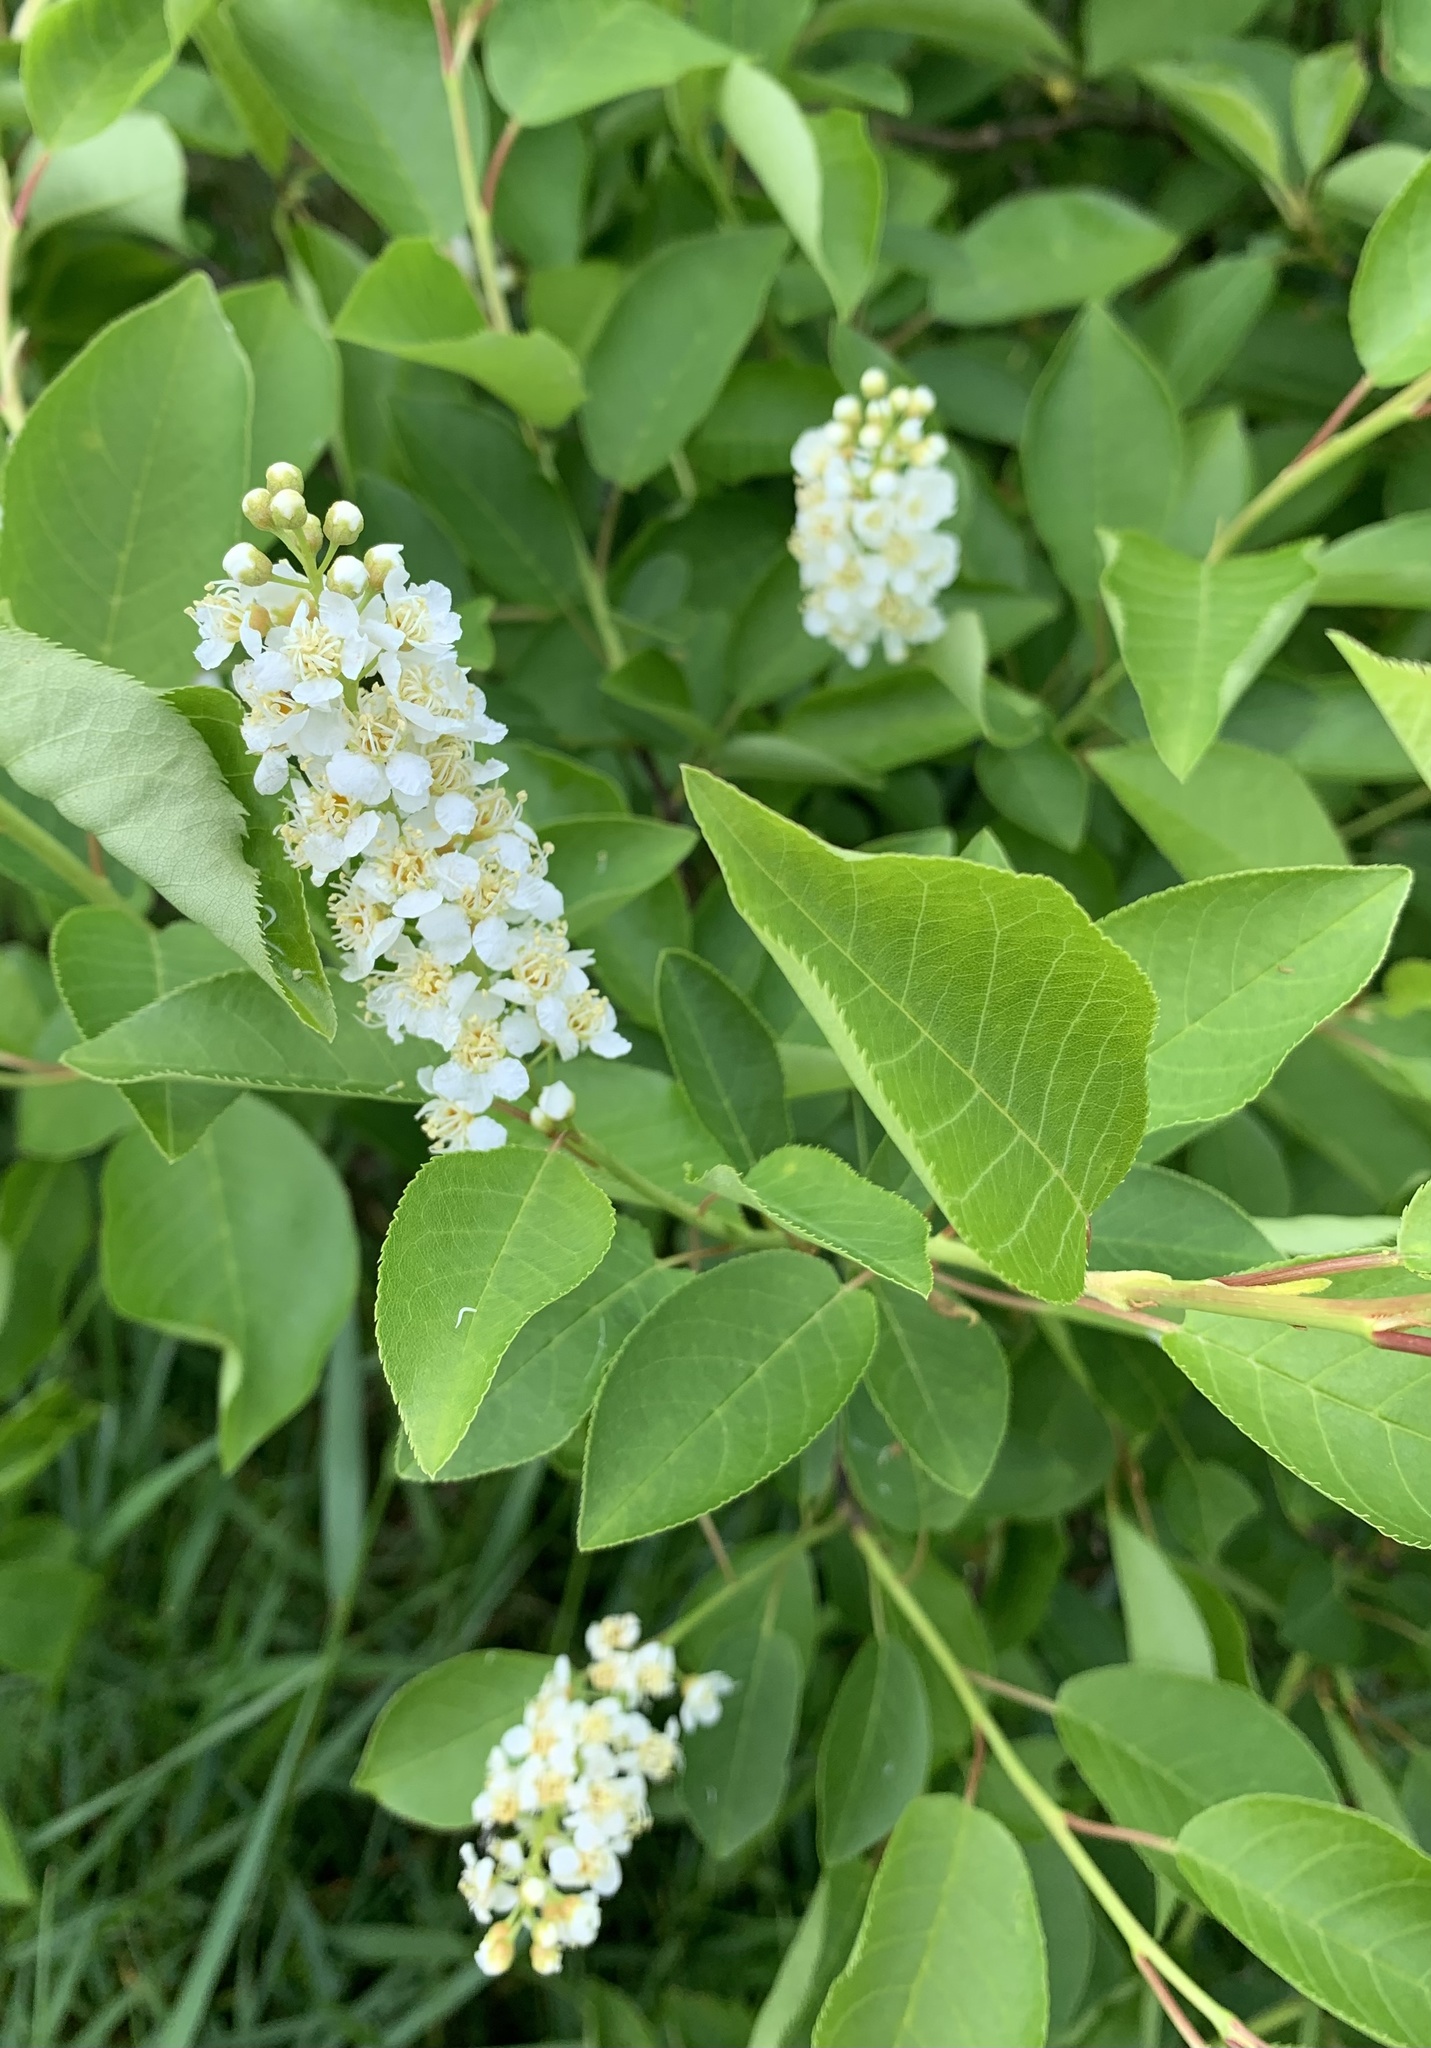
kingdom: Plantae
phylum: Tracheophyta
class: Magnoliopsida
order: Rosales
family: Rosaceae
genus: Prunus
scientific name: Prunus virginiana
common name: Chokecherry
